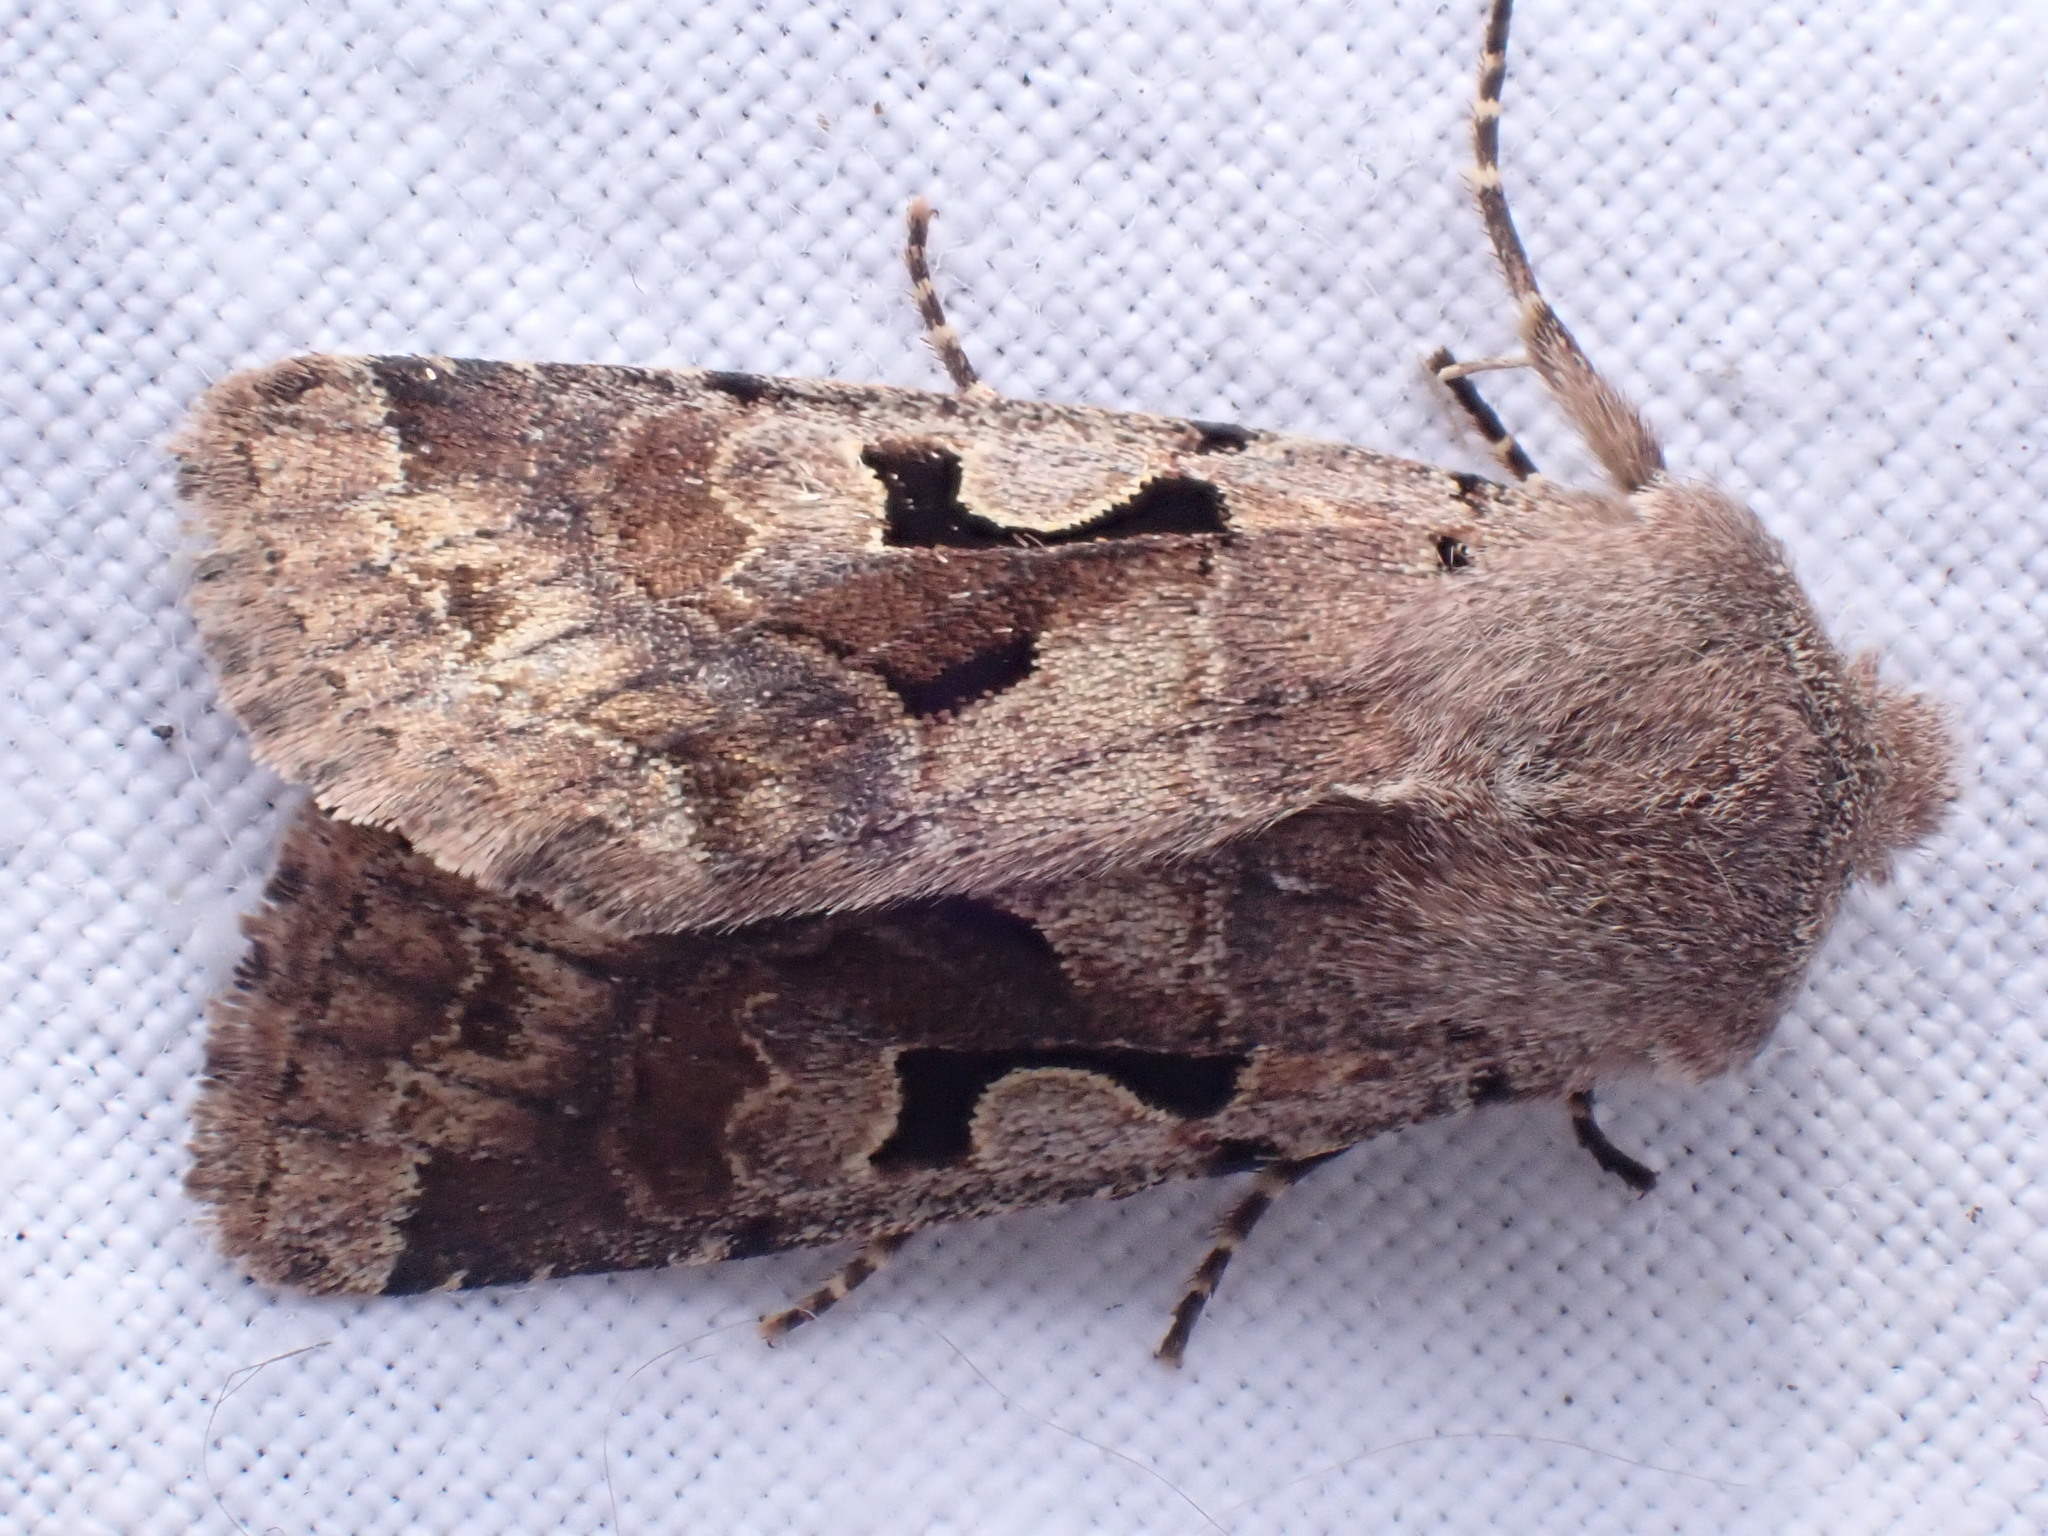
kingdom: Animalia
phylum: Arthropoda
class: Insecta
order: Lepidoptera
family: Noctuidae
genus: Orthosia
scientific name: Orthosia gothica
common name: Hebrew character
